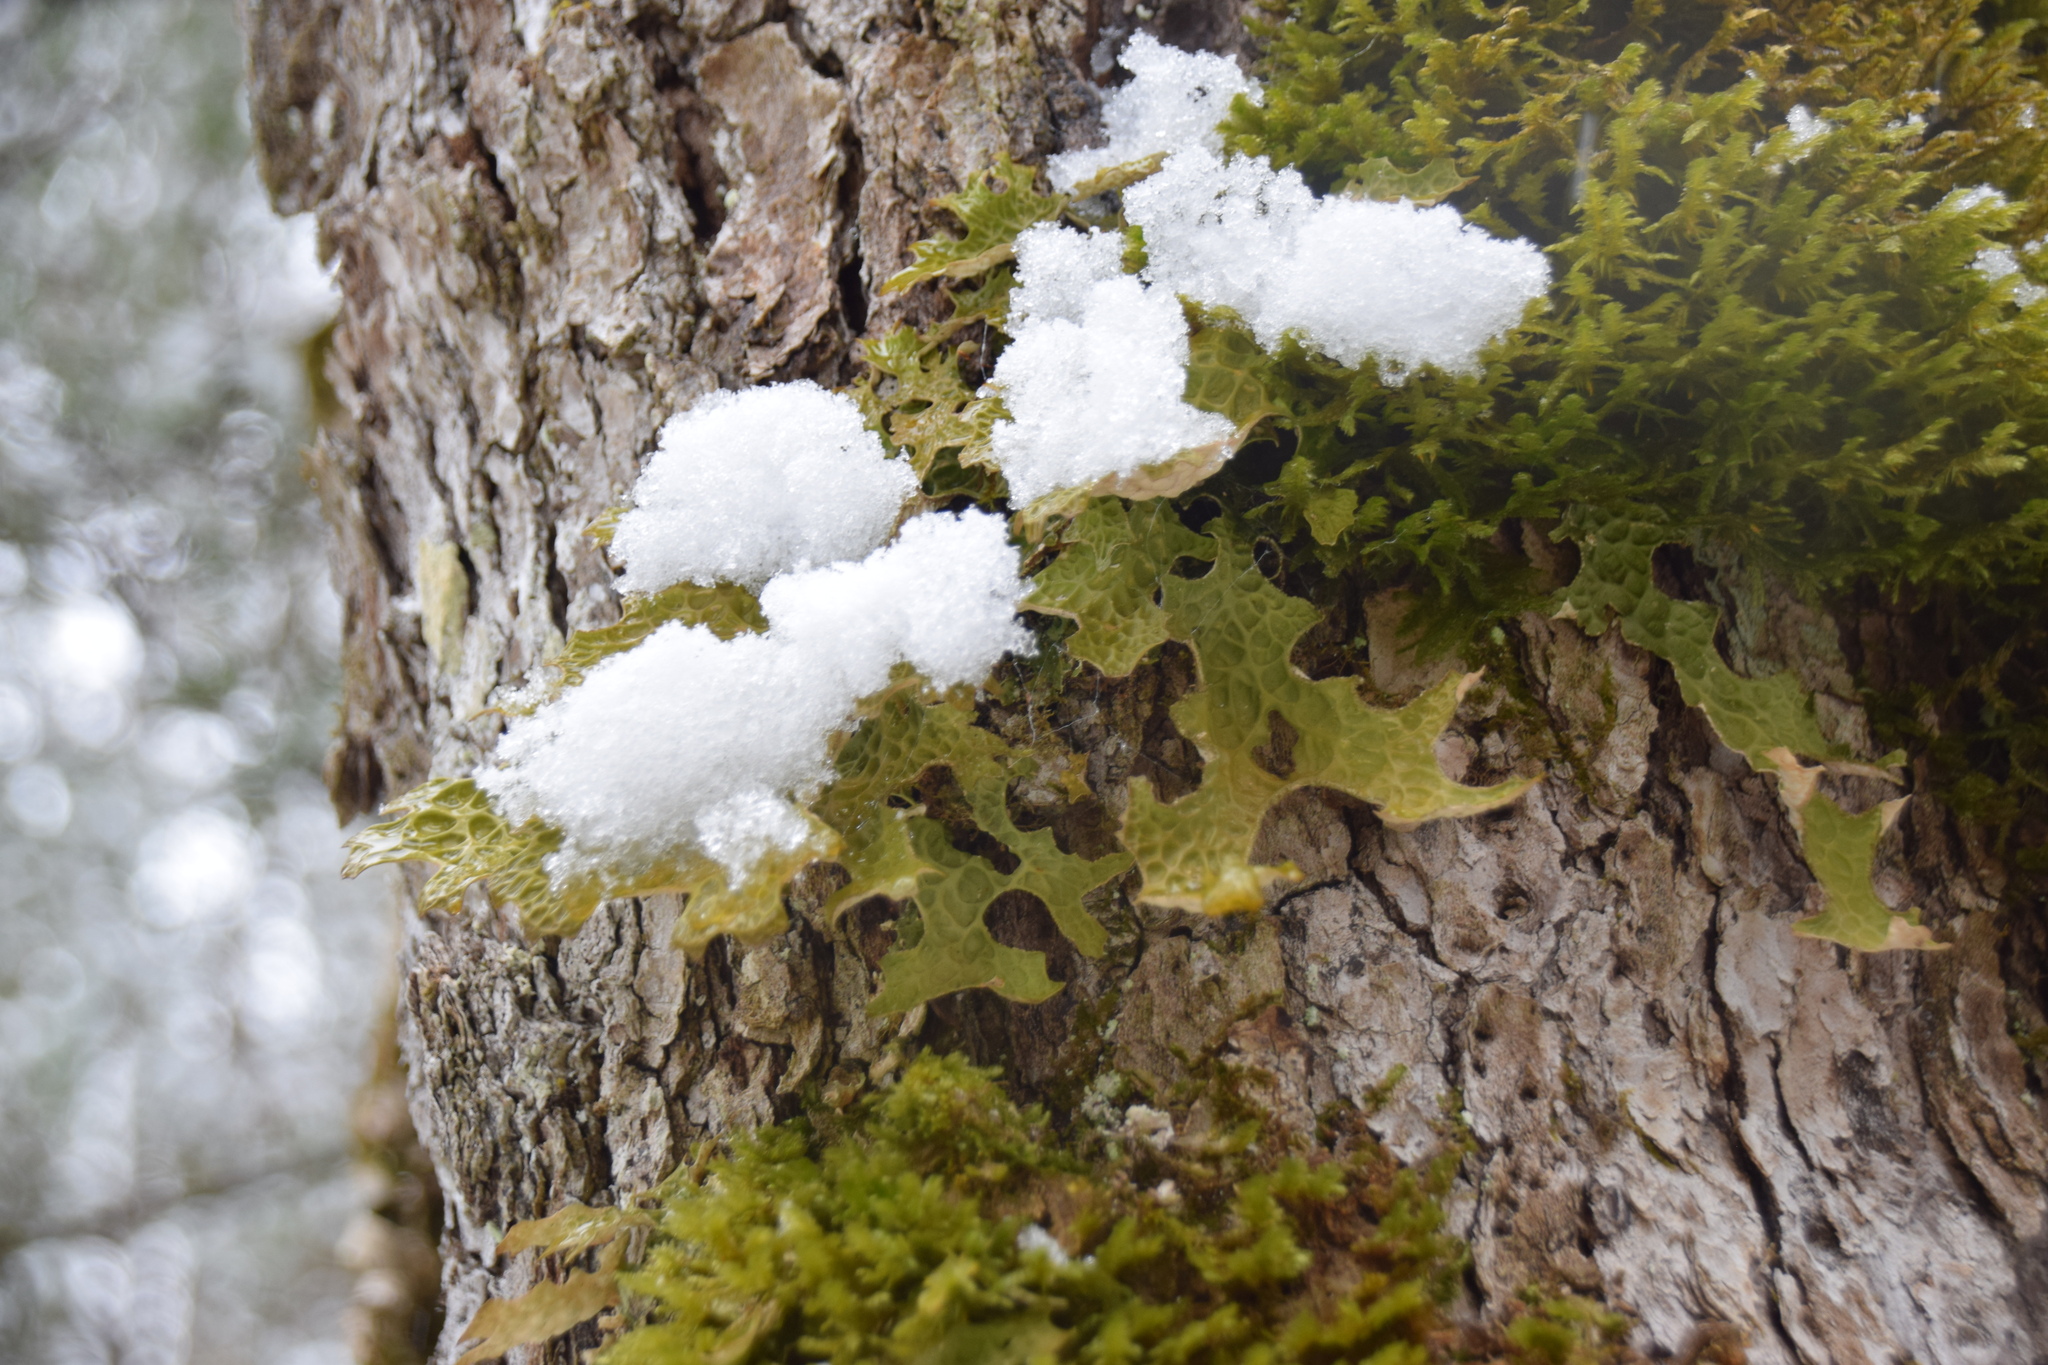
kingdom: Fungi
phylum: Ascomycota
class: Lecanoromycetes
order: Peltigerales
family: Lobariaceae
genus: Lobaria
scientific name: Lobaria pulmonaria
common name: Lungwort
